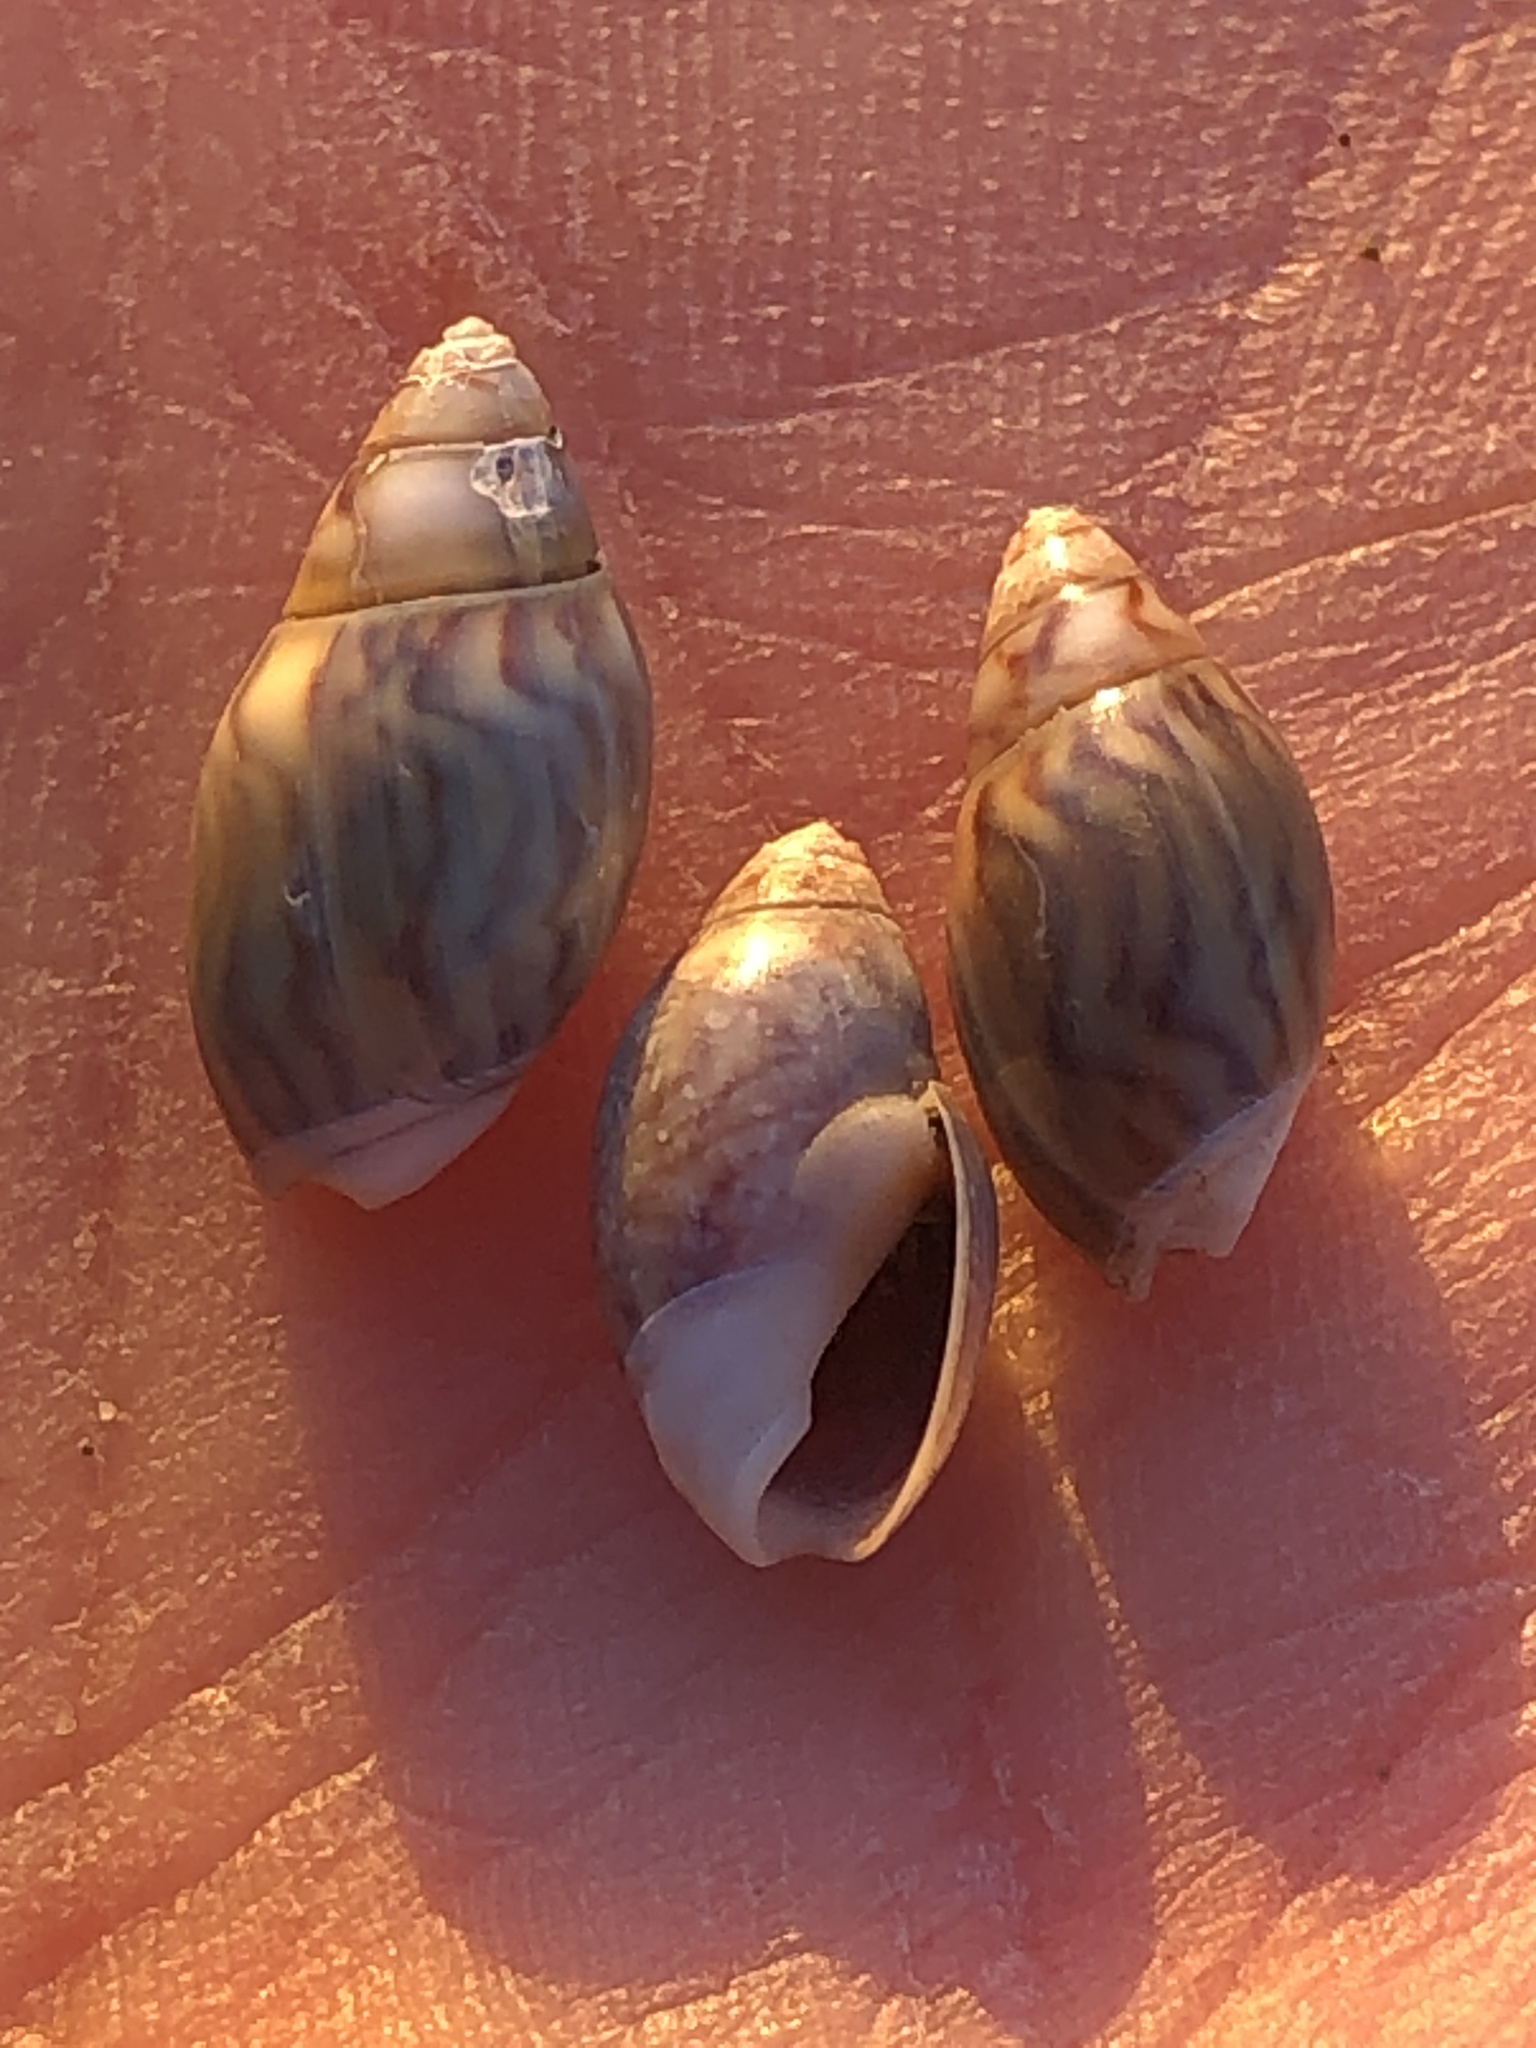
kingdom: Animalia
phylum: Mollusca
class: Gastropoda
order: Neogastropoda
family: Olividae
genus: Callianax
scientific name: Callianax alectona
